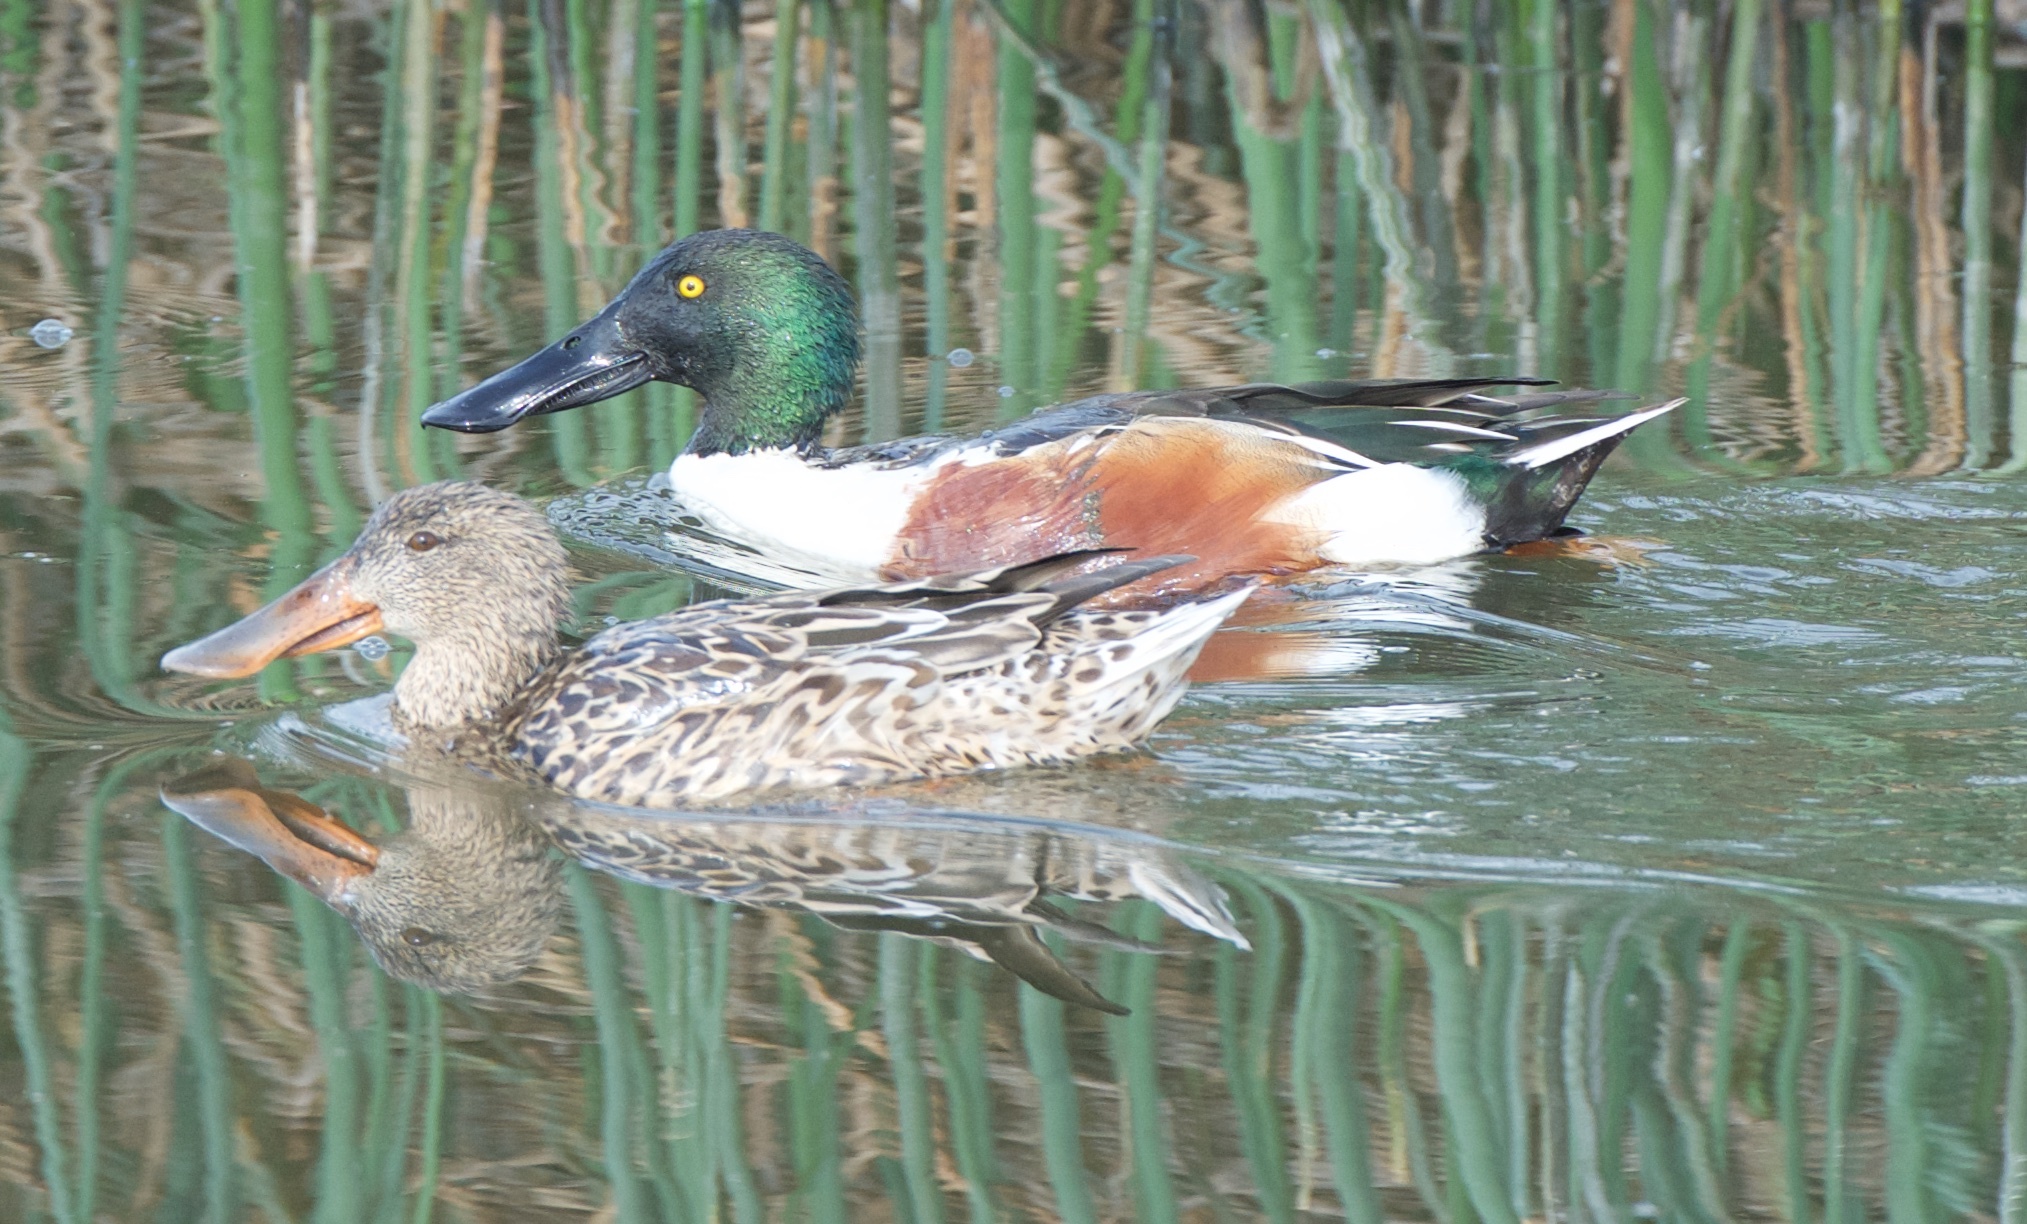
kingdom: Animalia
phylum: Chordata
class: Aves
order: Anseriformes
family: Anatidae
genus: Spatula
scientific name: Spatula clypeata
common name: Northern shoveler
